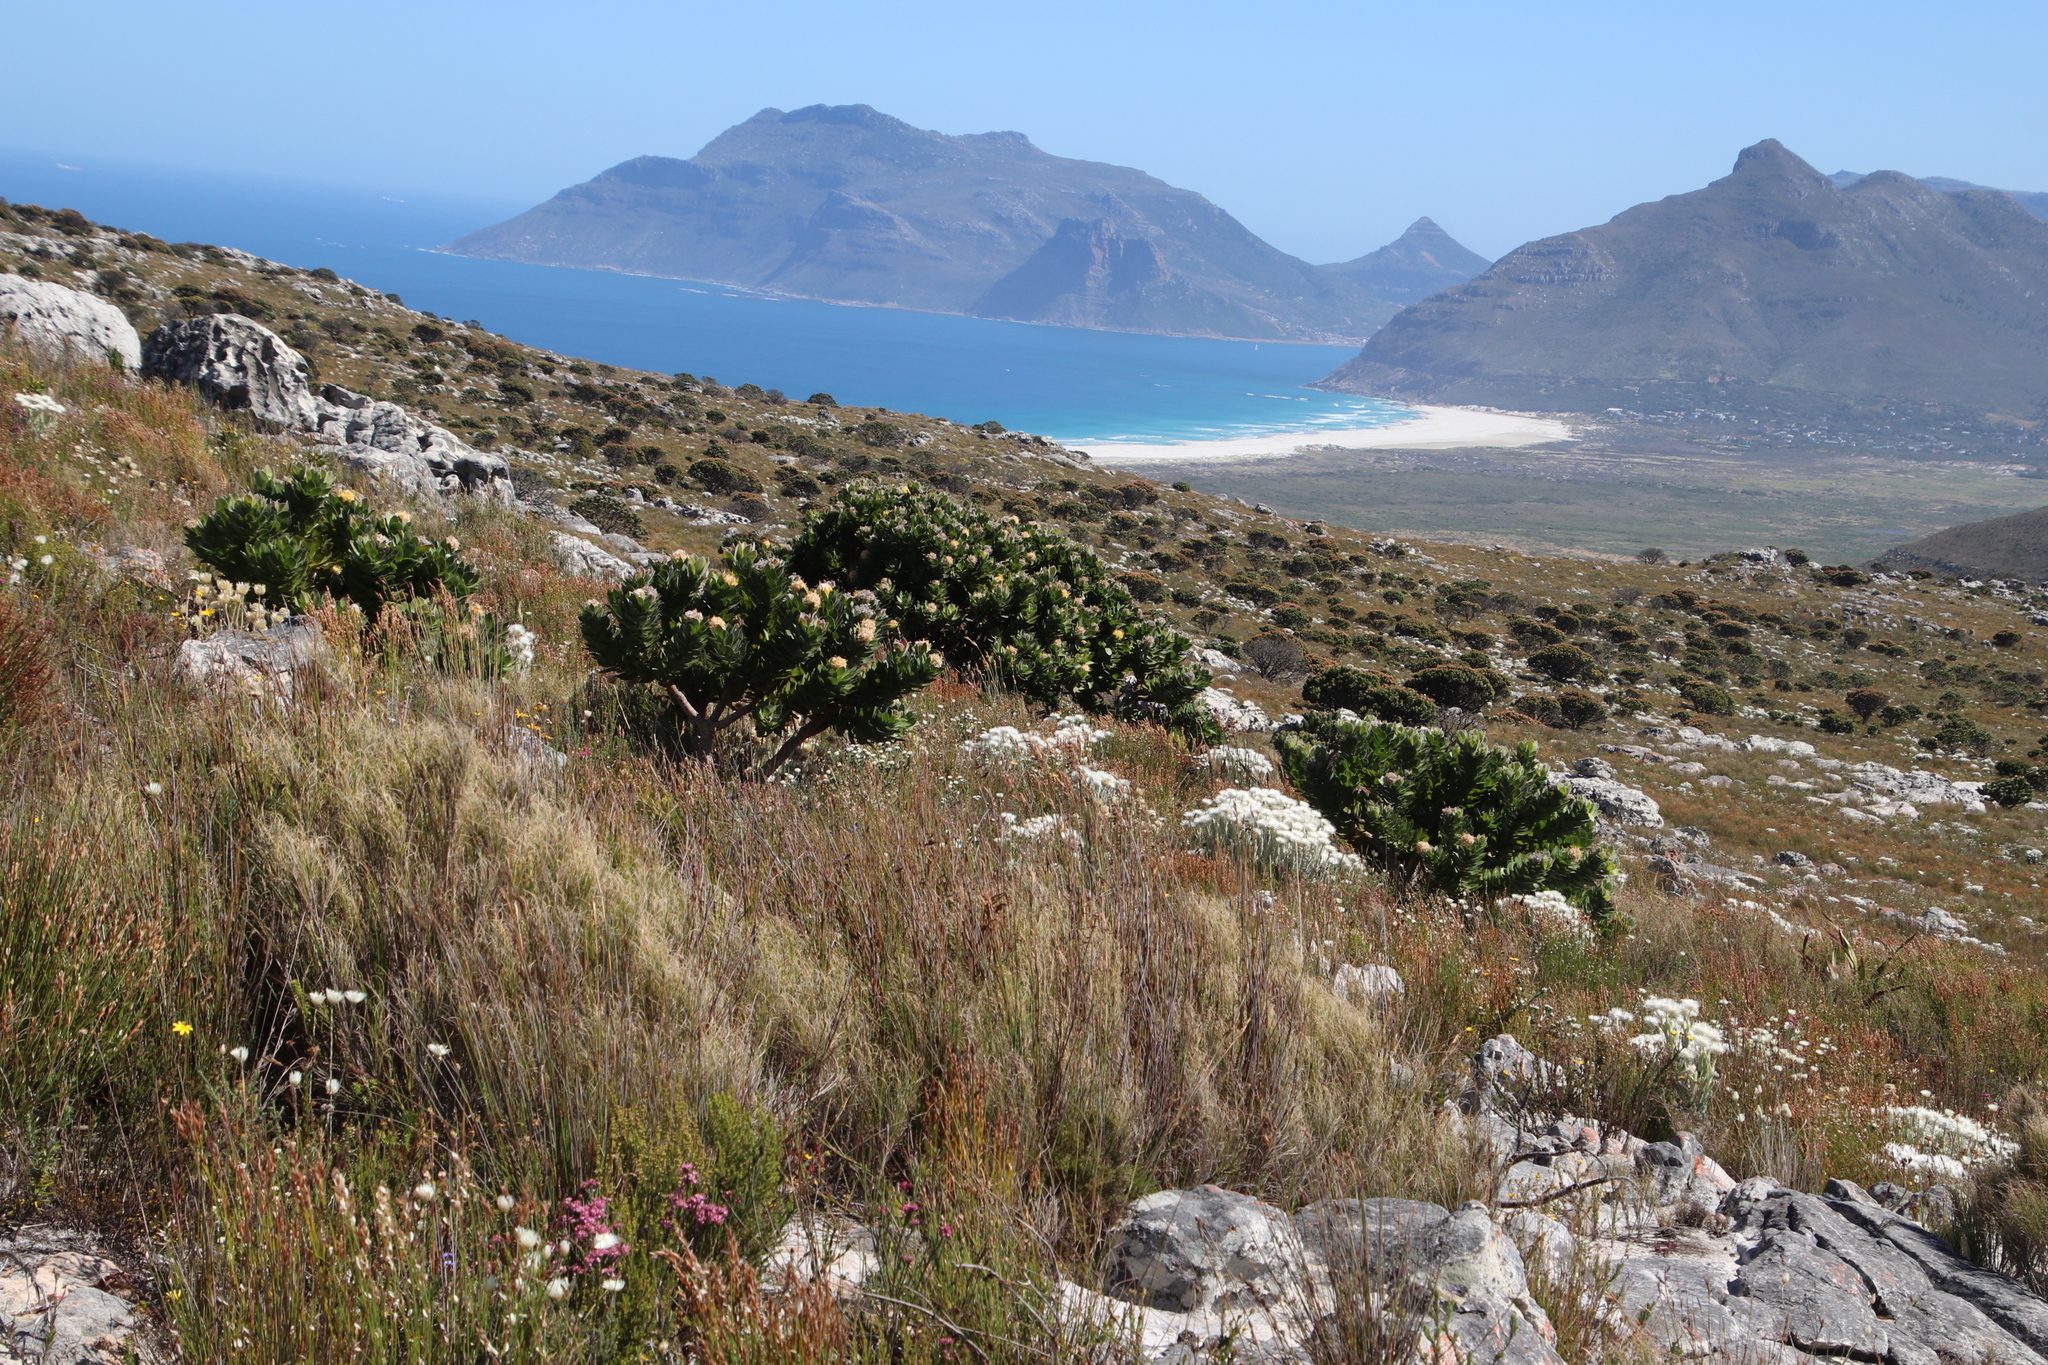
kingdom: Plantae
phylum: Tracheophyta
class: Magnoliopsida
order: Proteales
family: Proteaceae
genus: Leucospermum
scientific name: Leucospermum conocarpodendron
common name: Tree pincushion
